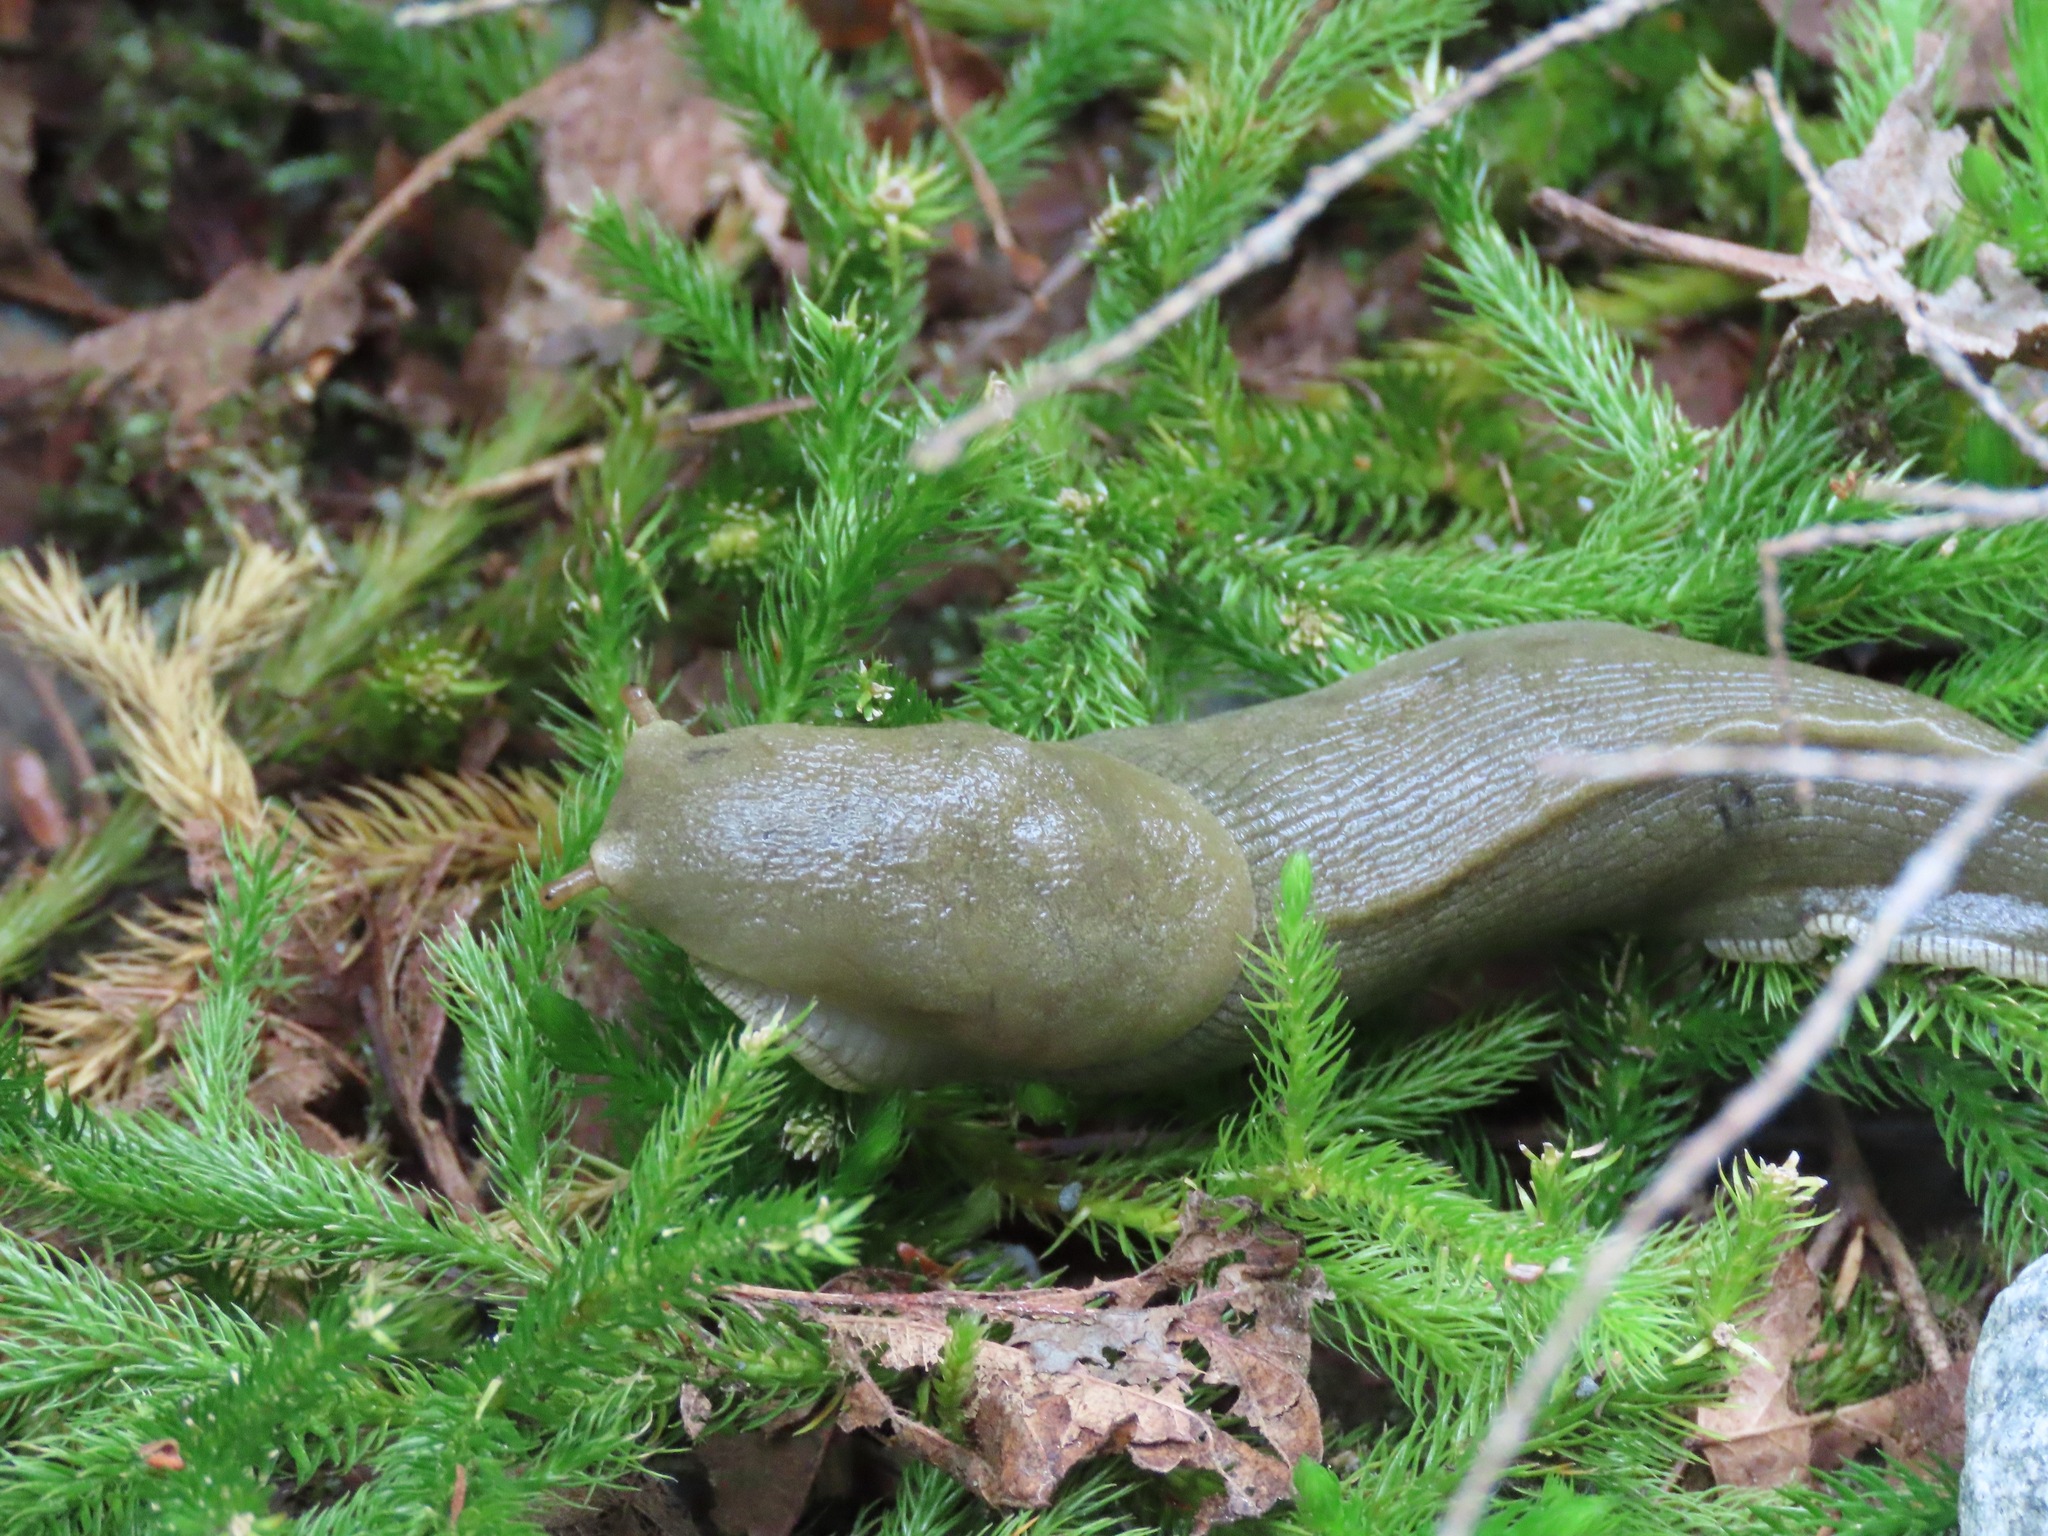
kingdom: Animalia
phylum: Mollusca
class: Gastropoda
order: Stylommatophora
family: Ariolimacidae
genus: Ariolimax
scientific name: Ariolimax columbianus
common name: Pacific banana slug
